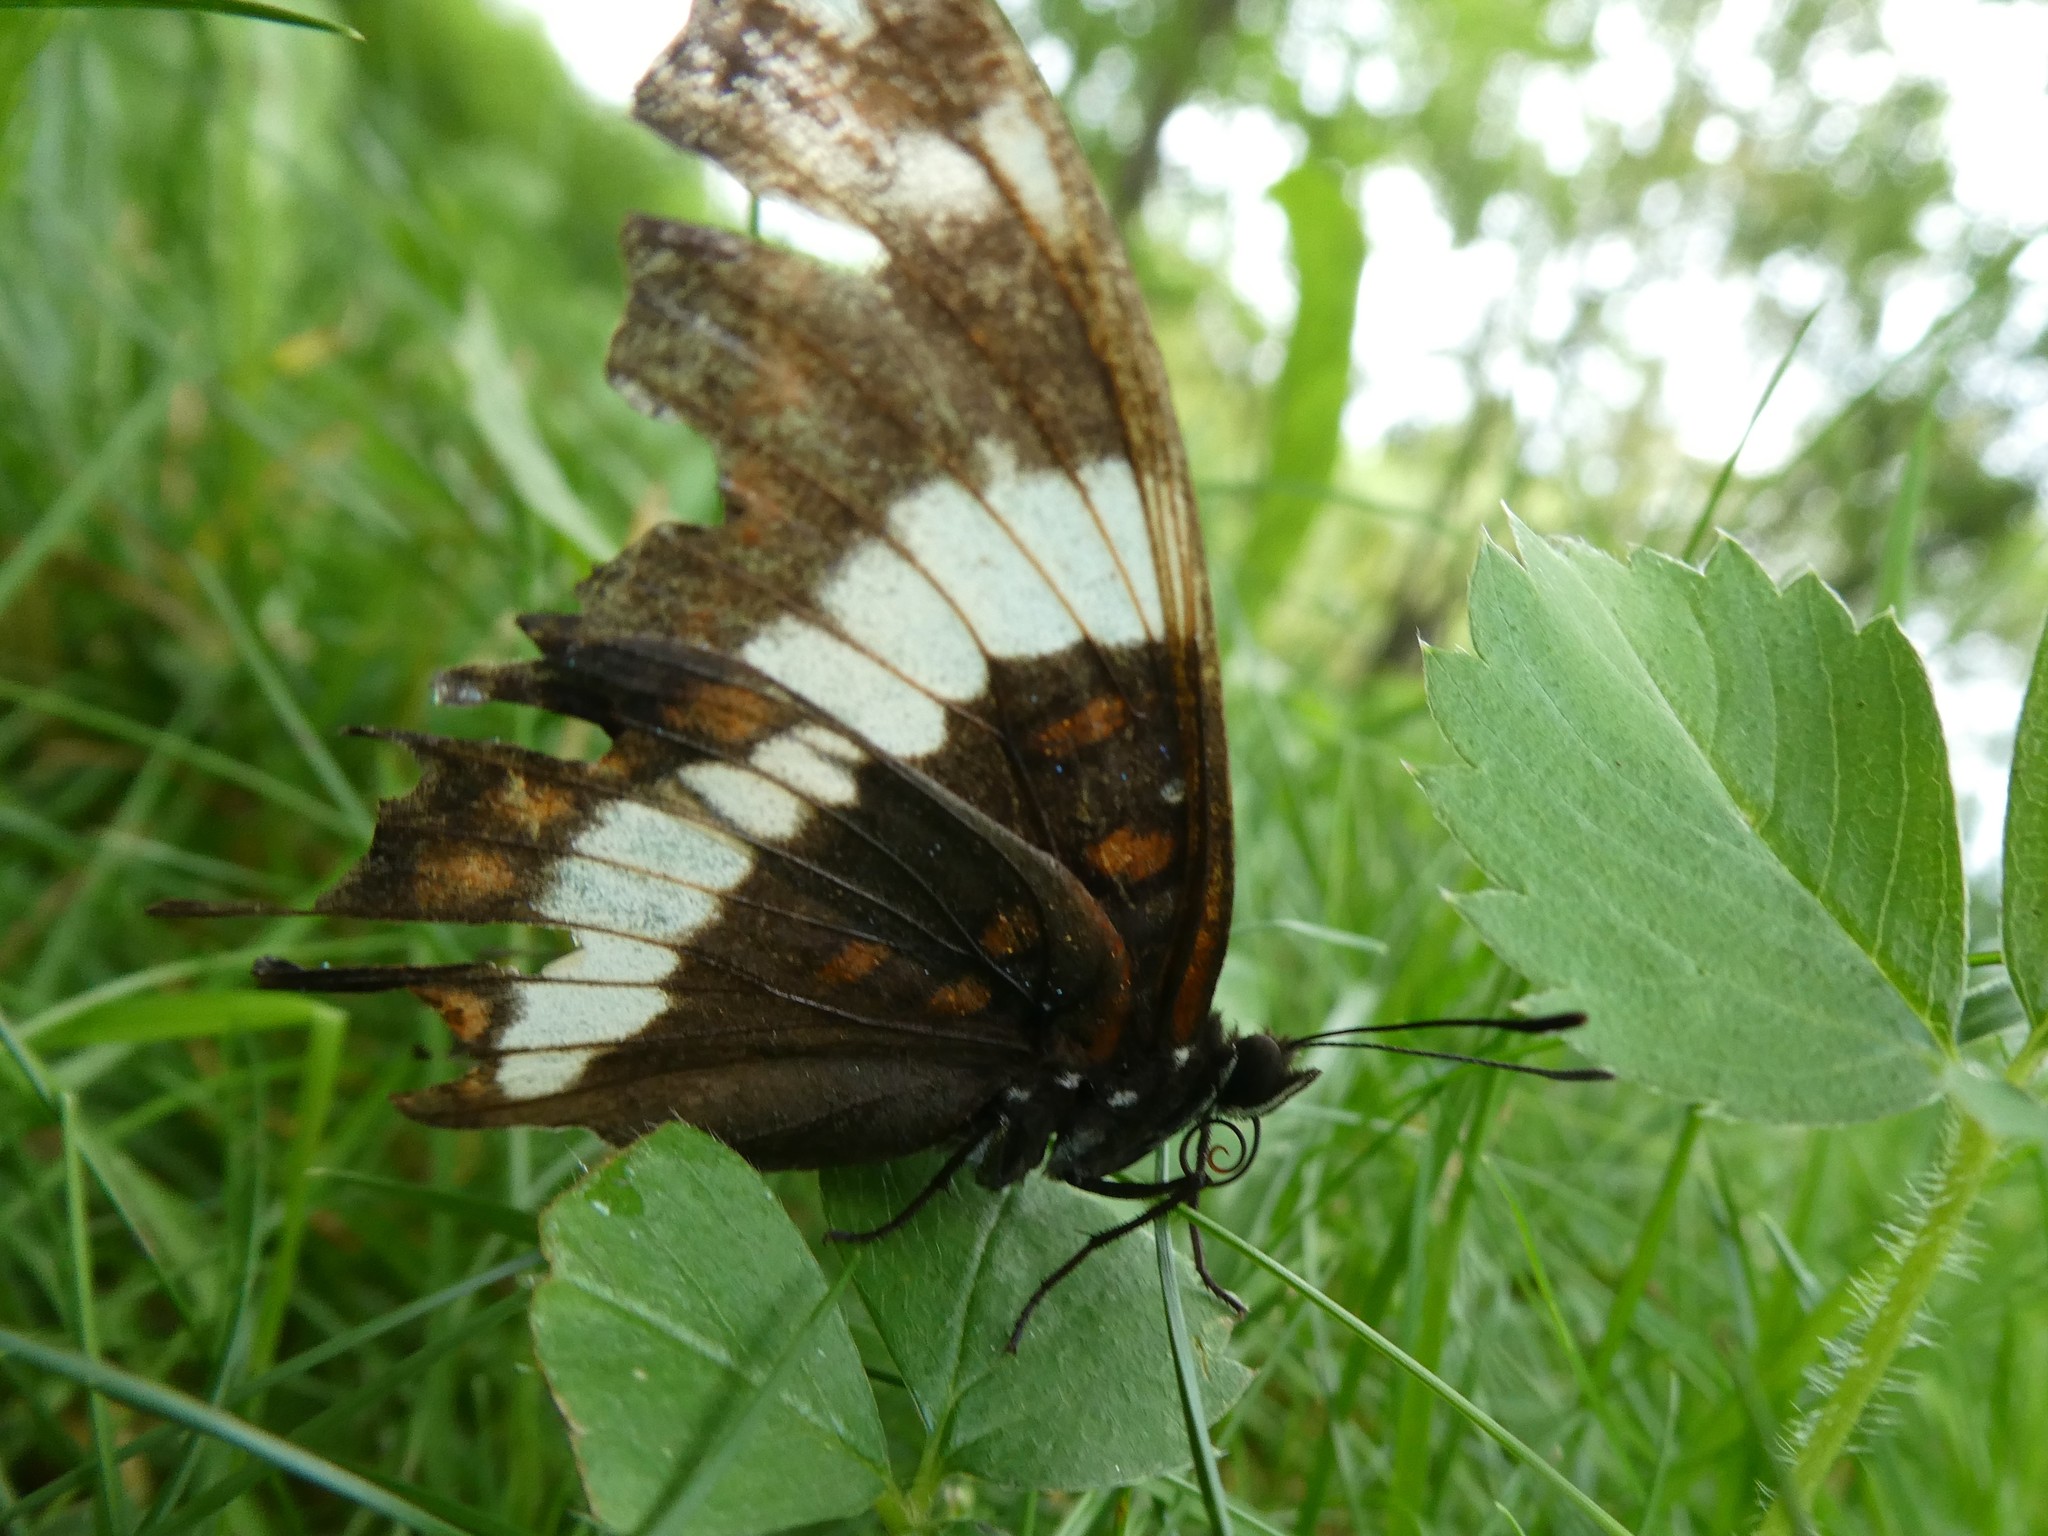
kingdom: Animalia
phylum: Arthropoda
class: Insecta
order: Lepidoptera
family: Nymphalidae
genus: Limenitis
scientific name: Limenitis arthemis
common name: Red-spotted admiral
